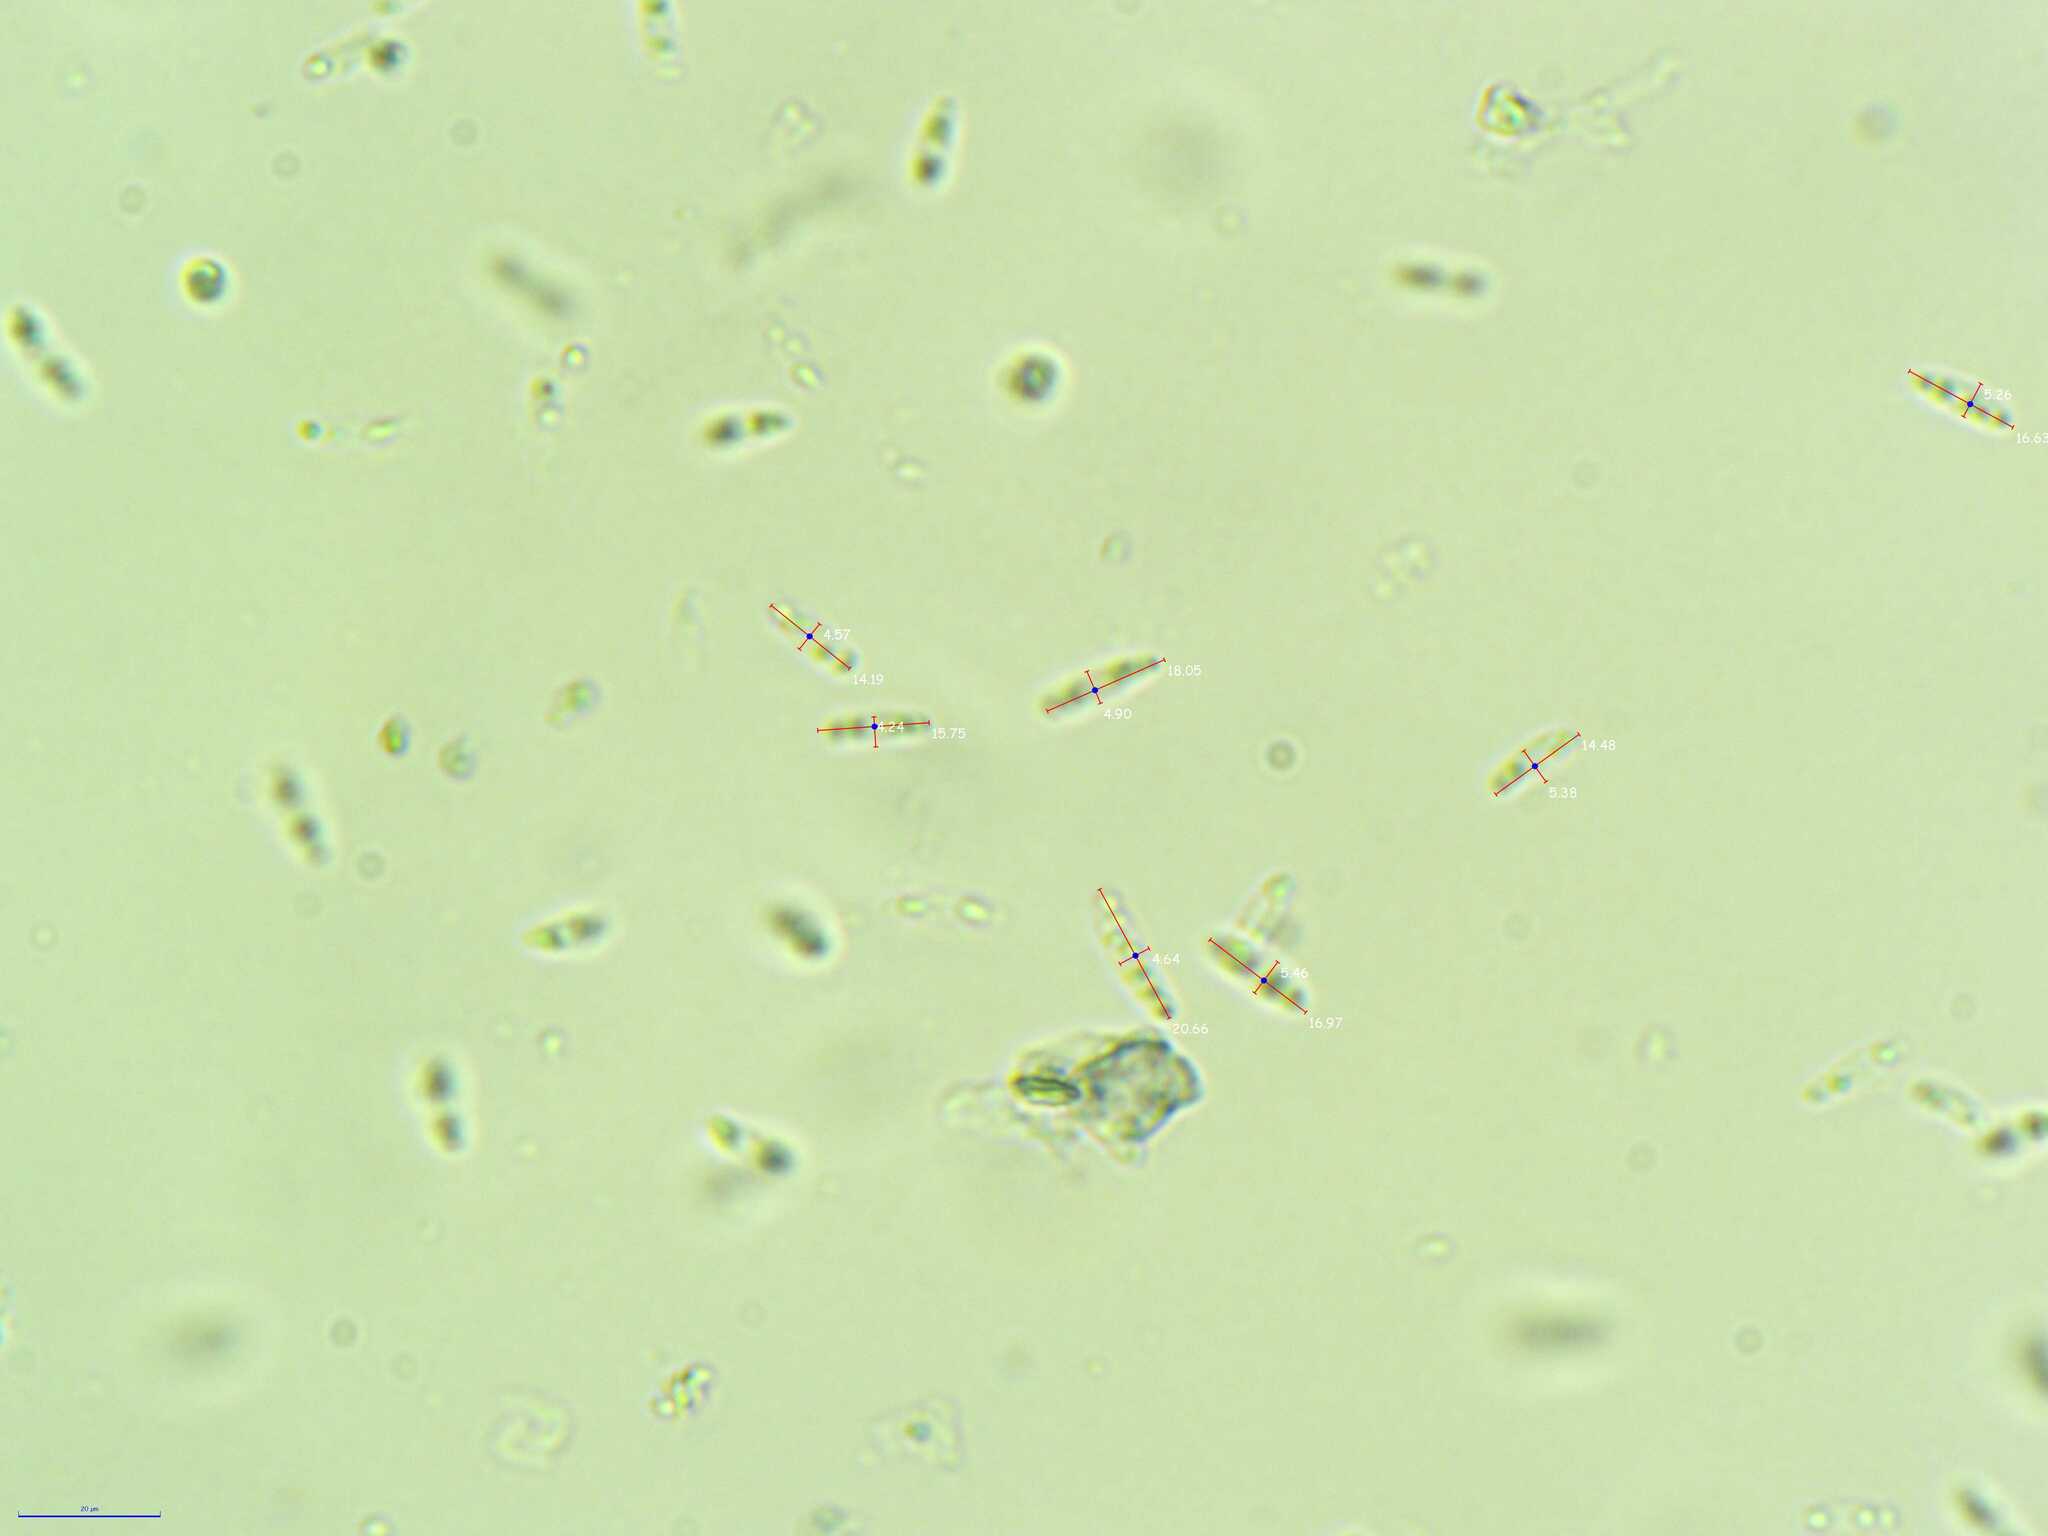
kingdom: Fungi
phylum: Ascomycota
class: Leotiomycetes
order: Helotiales
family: Chlorociboriaceae
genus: Chlorociboria
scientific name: Chlorociboria aeruginosa
